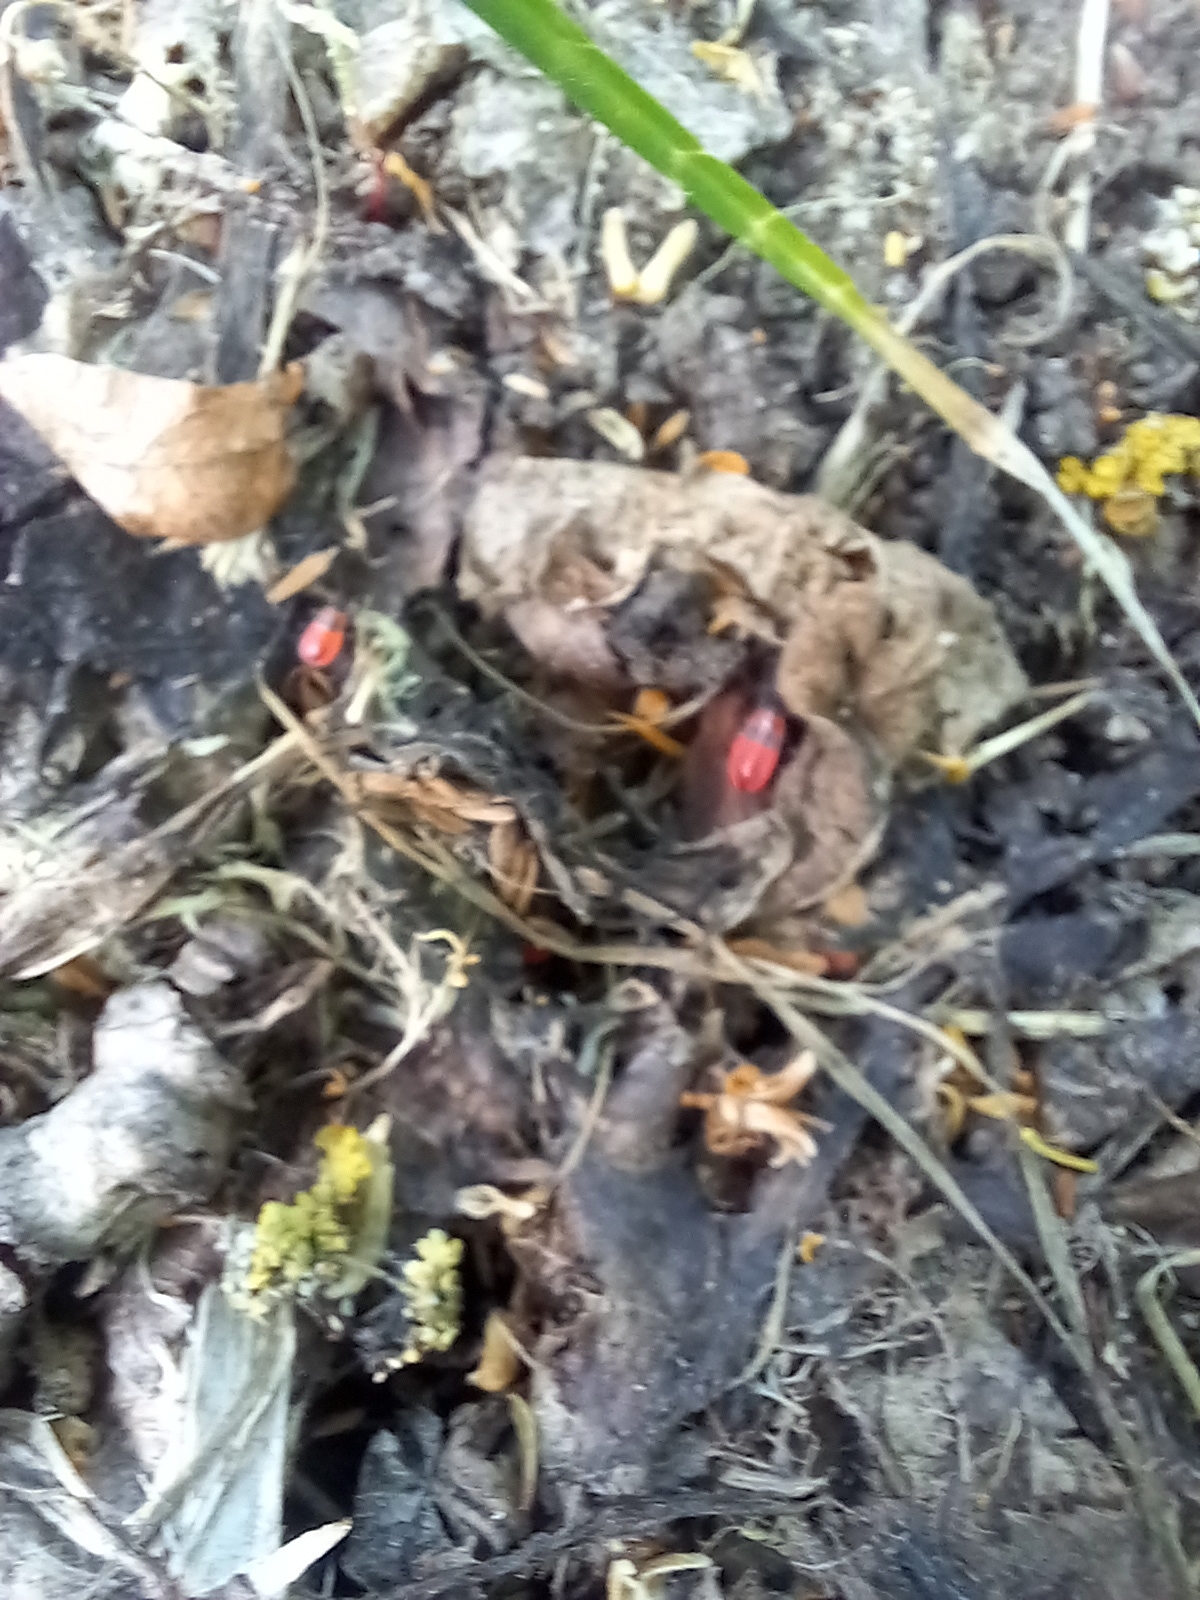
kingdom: Animalia
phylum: Arthropoda
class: Insecta
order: Hemiptera
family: Pyrrhocoridae
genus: Pyrrhocoris
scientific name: Pyrrhocoris apterus
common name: Firebug
